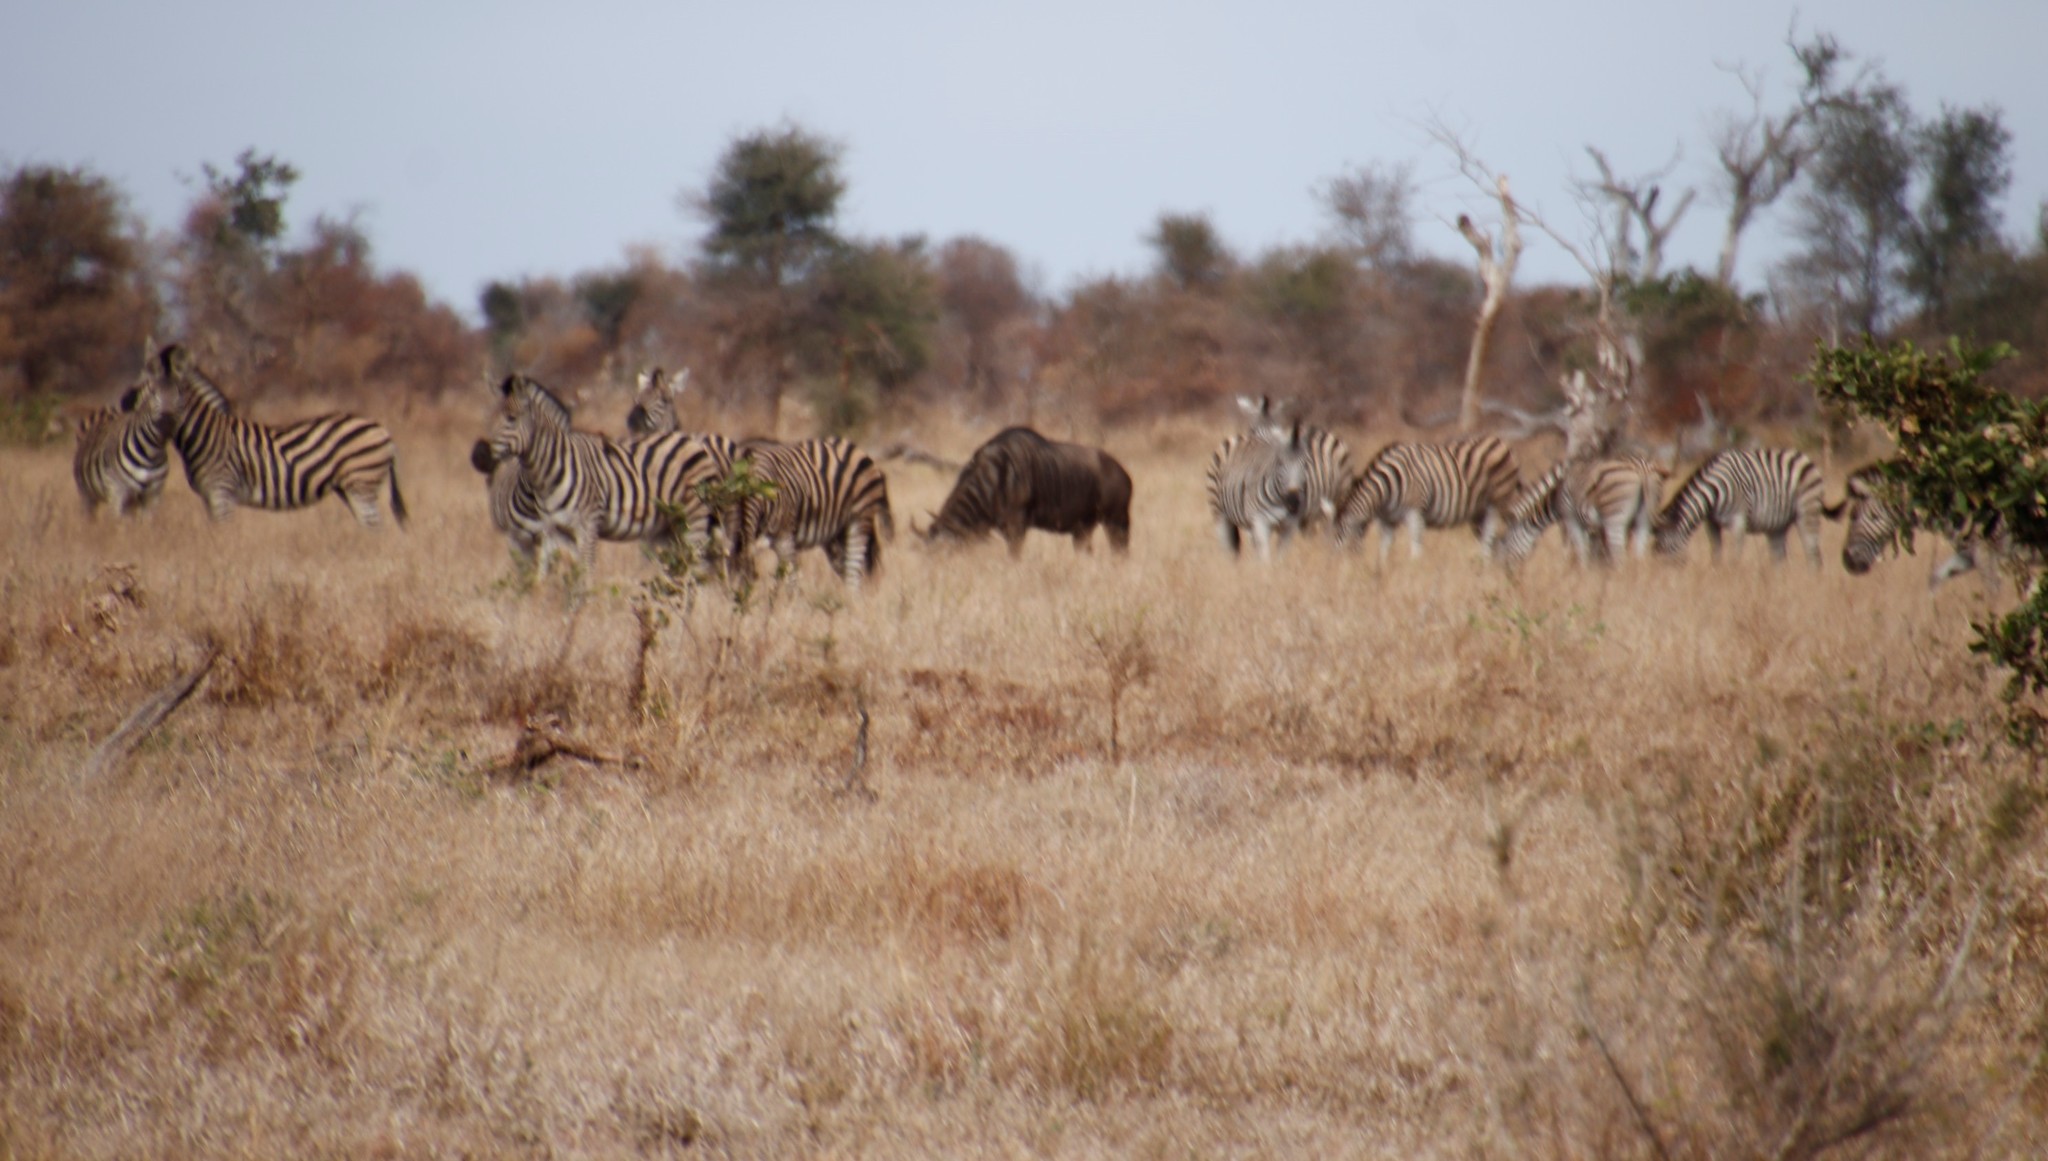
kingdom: Animalia
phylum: Chordata
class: Mammalia
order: Artiodactyla
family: Bovidae
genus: Connochaetes
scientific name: Connochaetes taurinus
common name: Blue wildebeest
